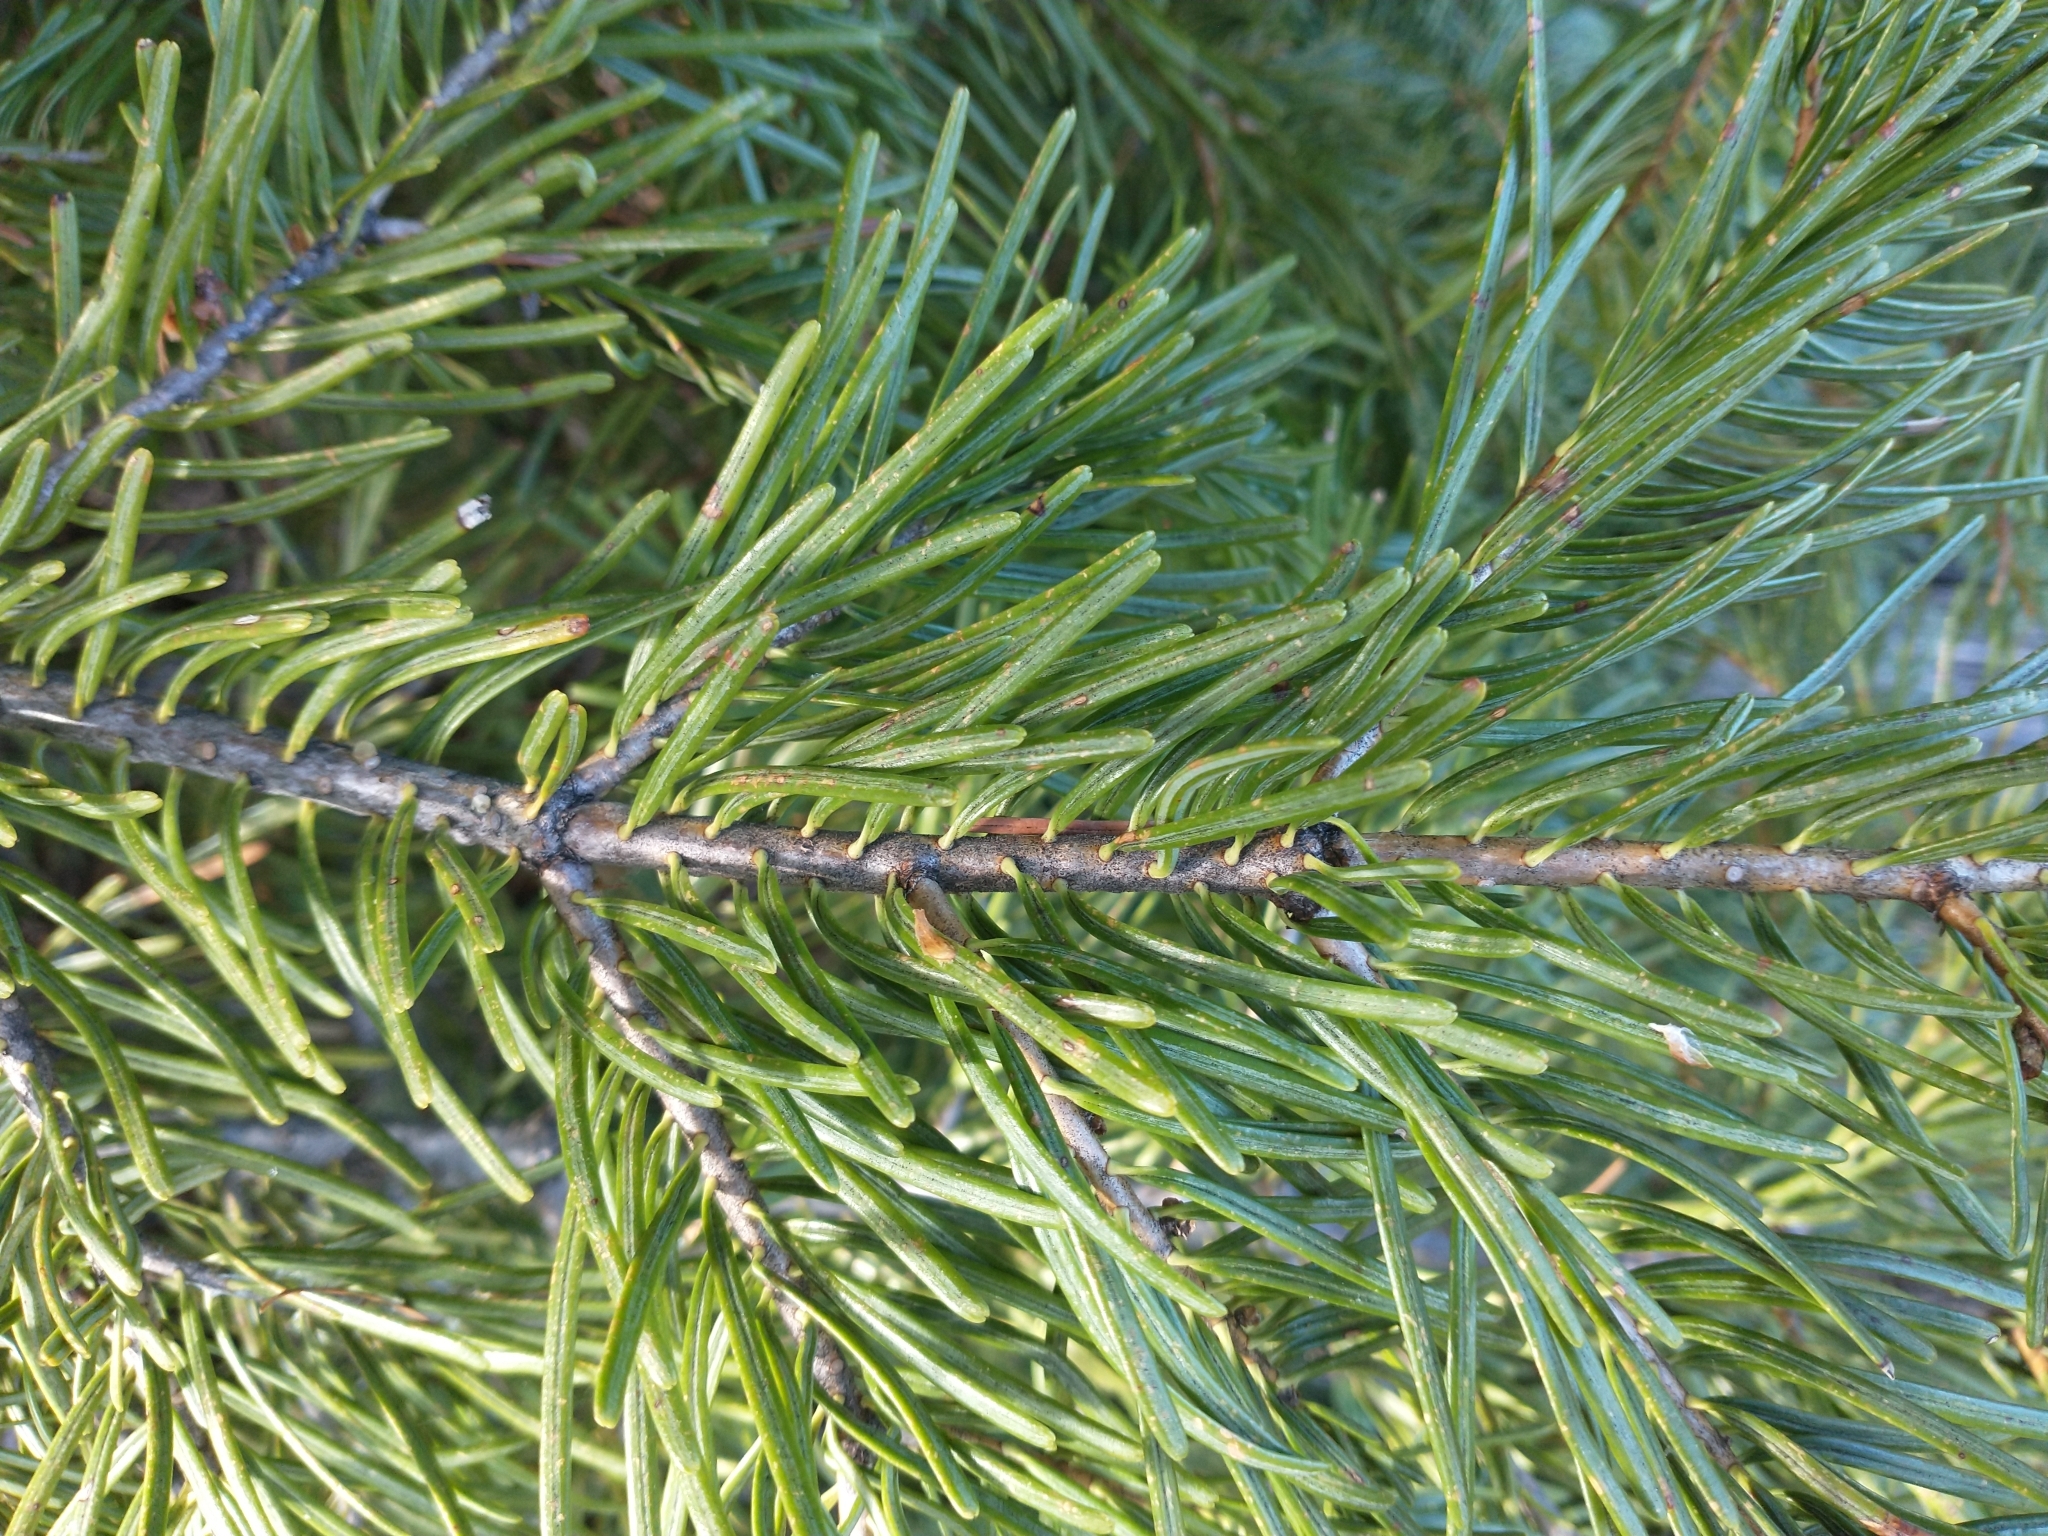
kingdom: Plantae
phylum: Tracheophyta
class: Pinopsida
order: Pinales
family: Pinaceae
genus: Abies
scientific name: Abies concolor
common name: Colorado fir
